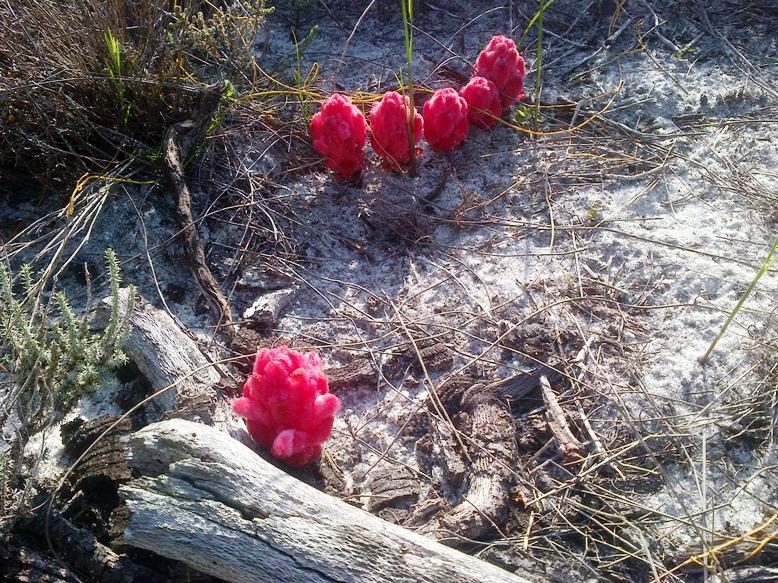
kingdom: Plantae
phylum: Tracheophyta
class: Magnoliopsida
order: Lamiales
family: Orobanchaceae
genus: Hyobanche
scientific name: Hyobanche sanguinea
